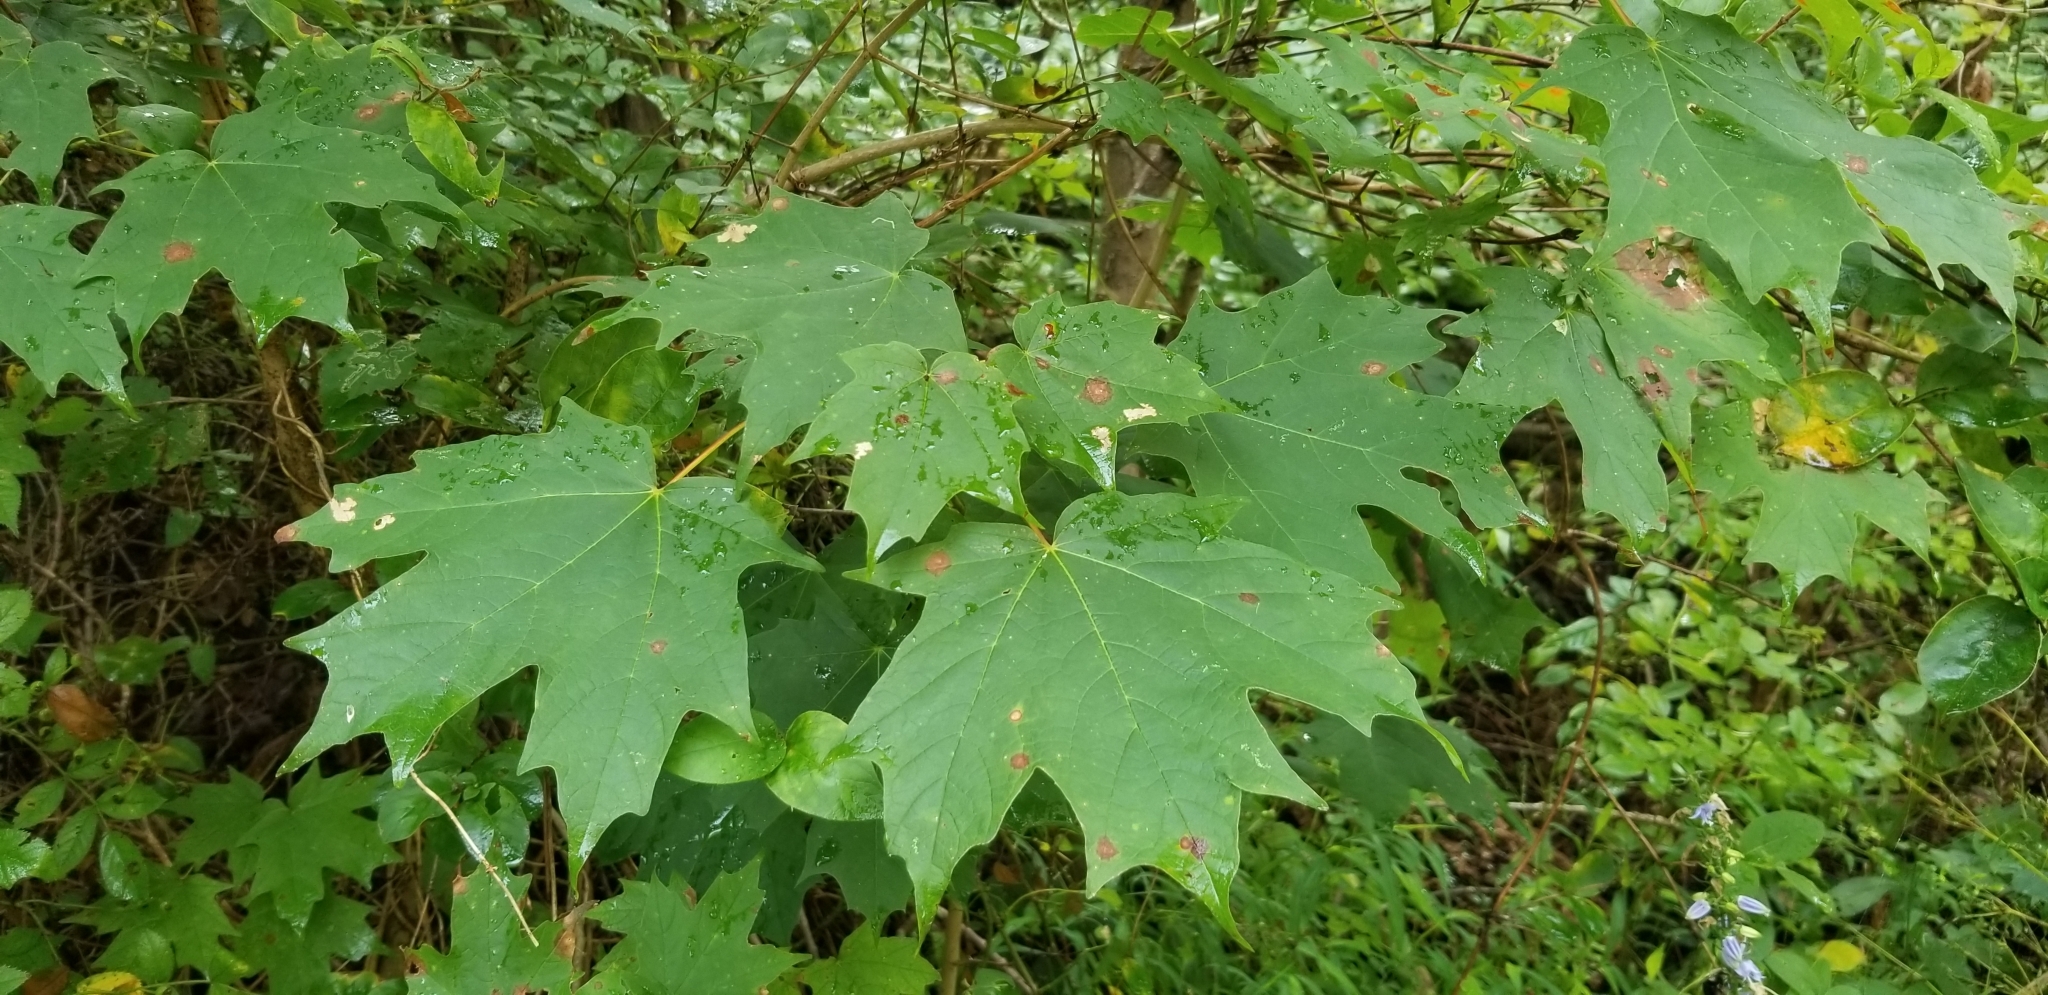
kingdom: Plantae
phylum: Tracheophyta
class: Magnoliopsida
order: Sapindales
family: Sapindaceae
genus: Acer
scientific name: Acer saccharum
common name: Sugar maple
